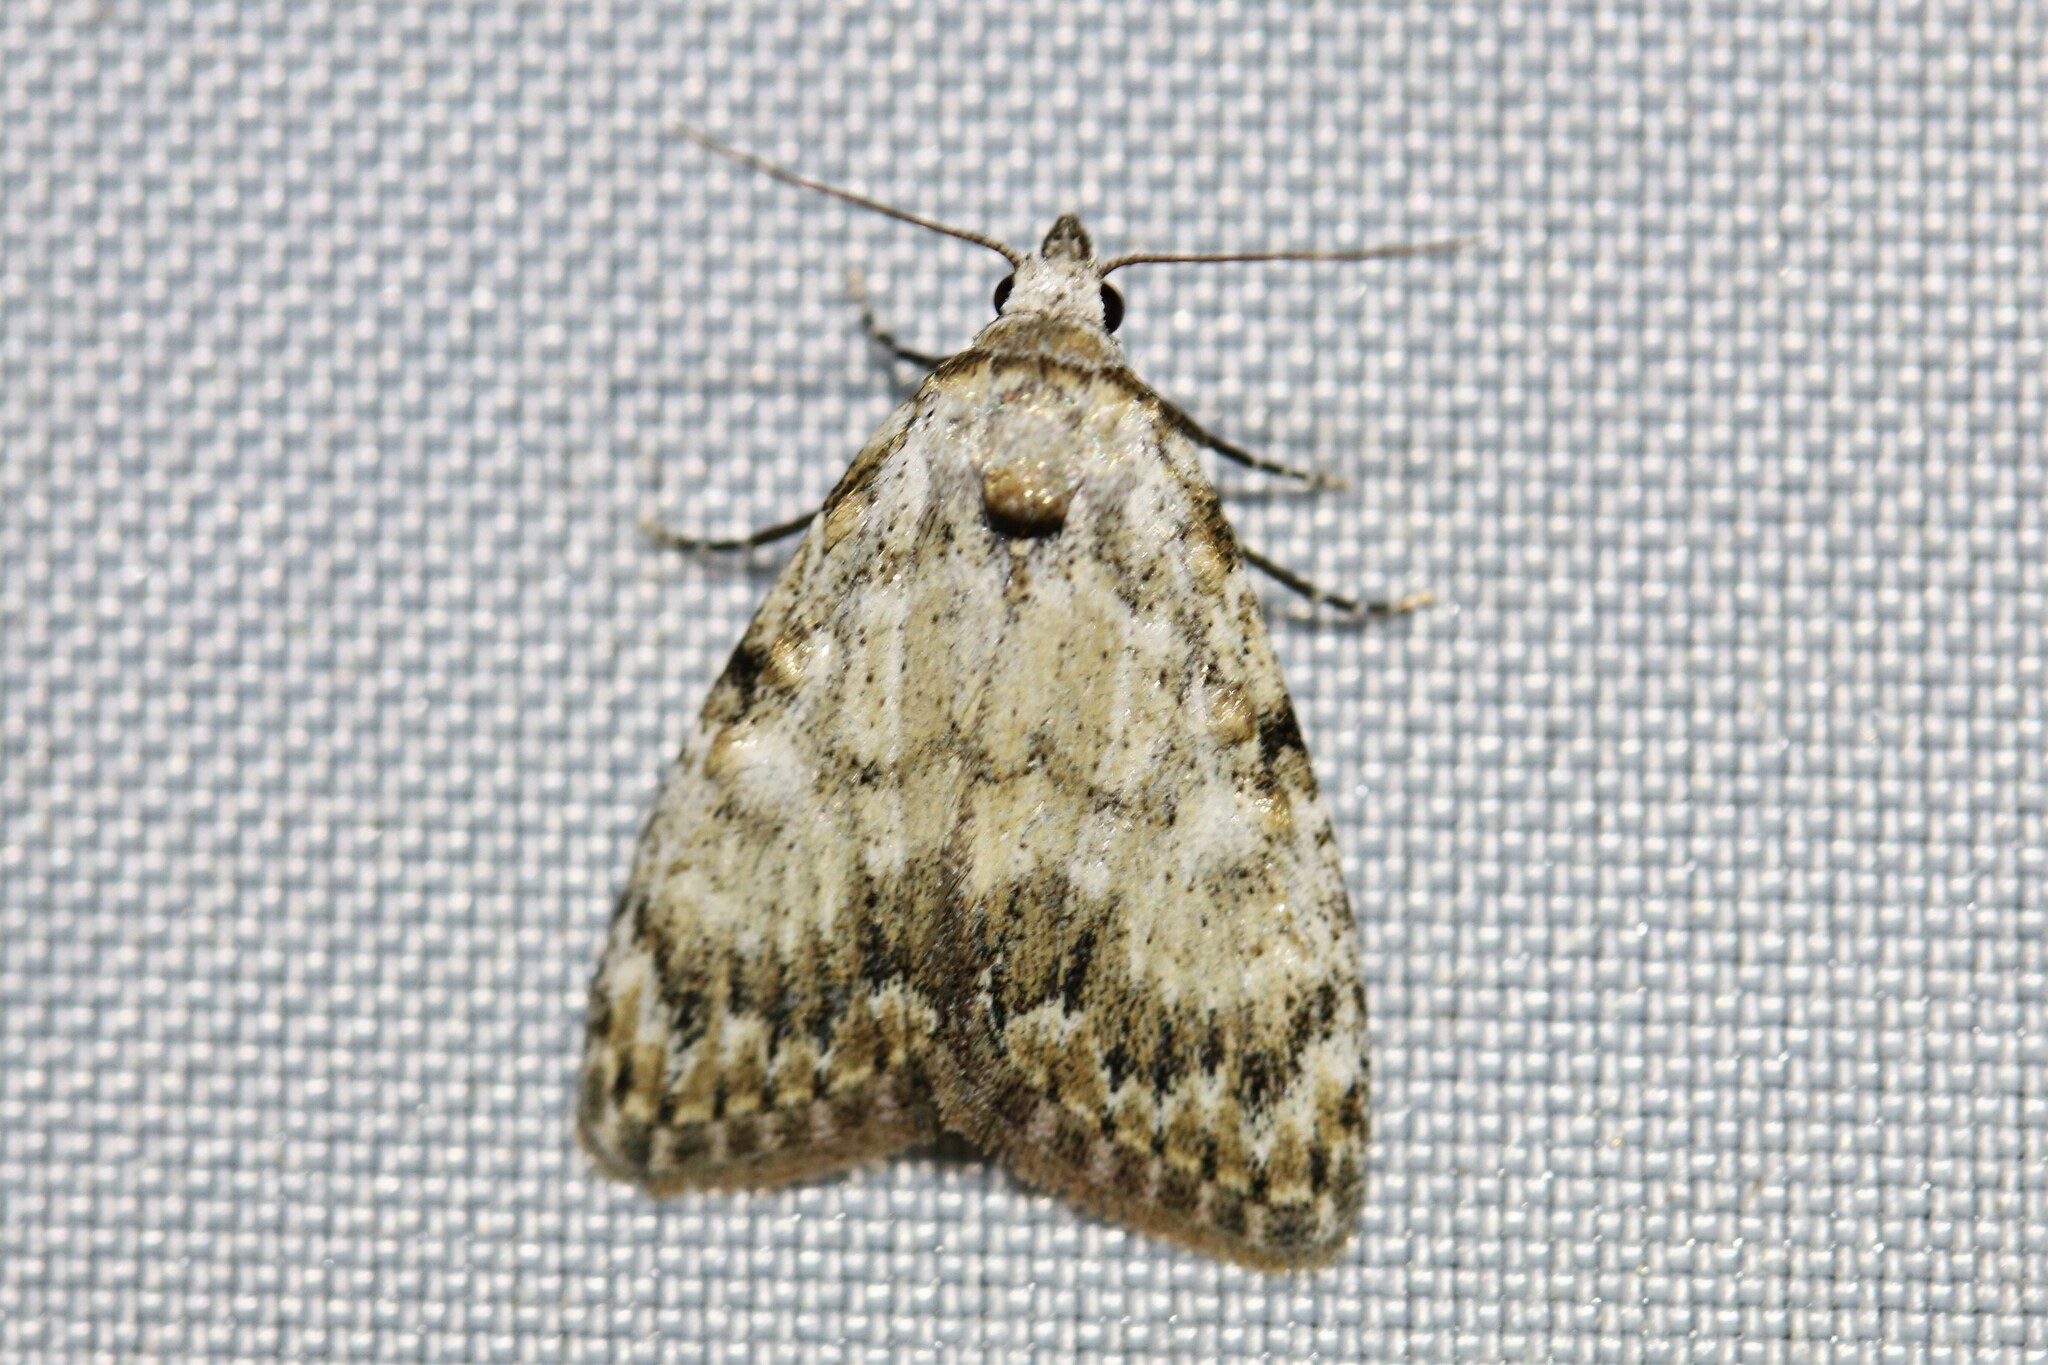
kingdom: Animalia
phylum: Arthropoda
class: Insecta
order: Lepidoptera
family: Nolidae
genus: Meganola
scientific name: Meganola strigula
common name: Small black arches
